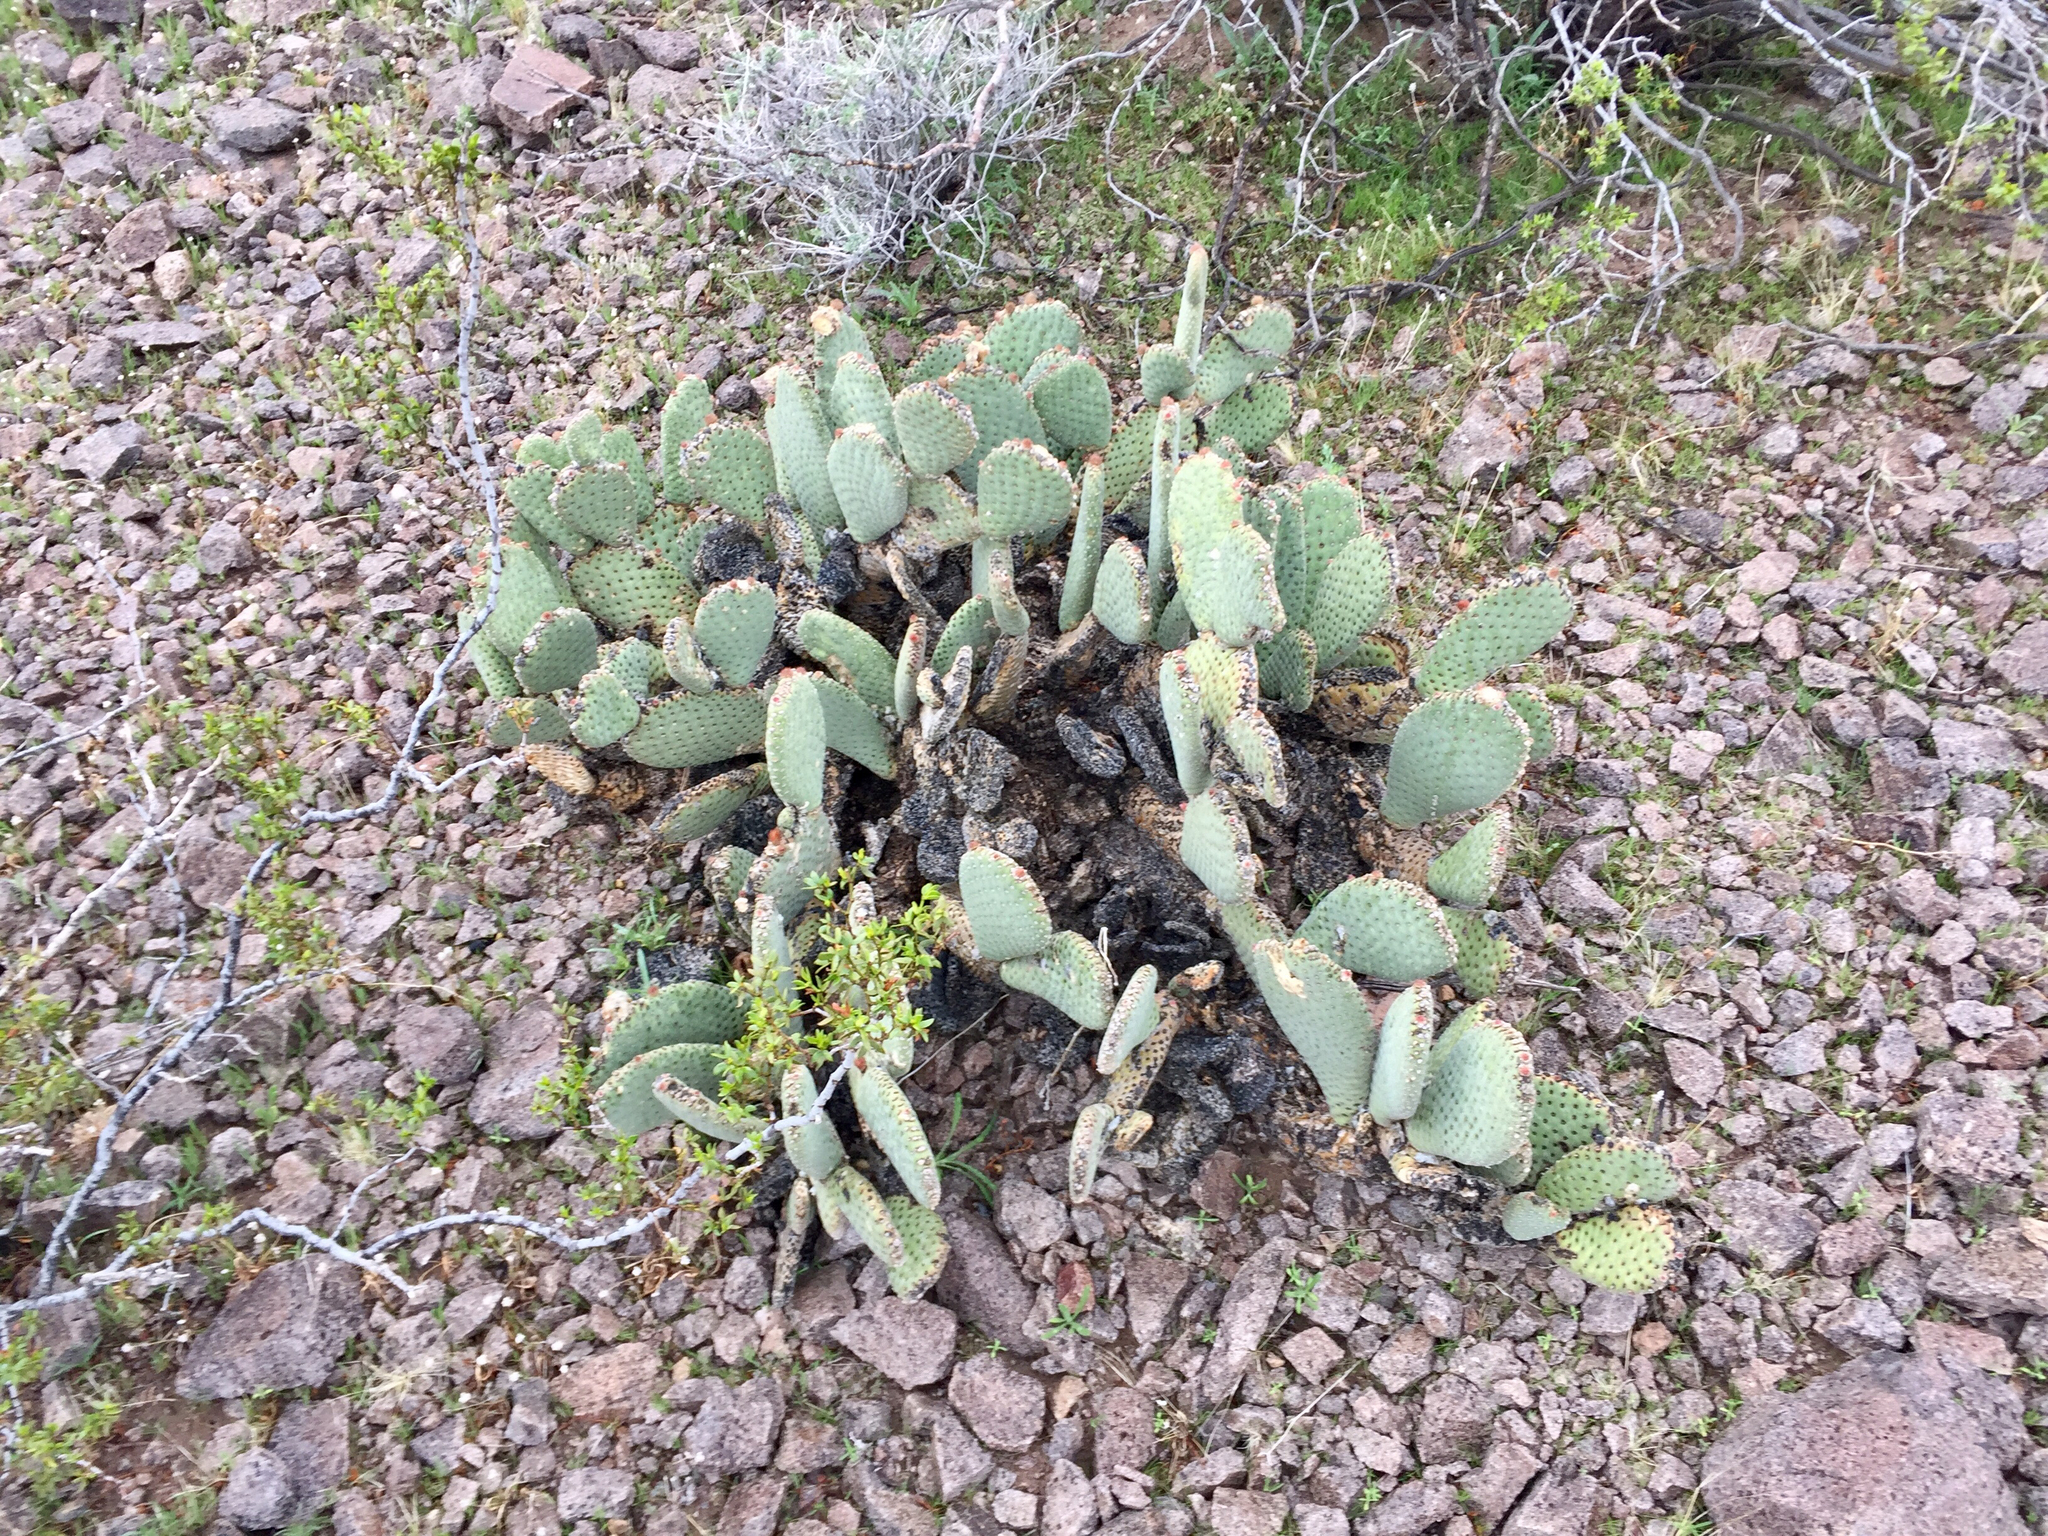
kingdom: Plantae
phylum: Tracheophyta
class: Magnoliopsida
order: Caryophyllales
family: Cactaceae
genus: Opuntia
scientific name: Opuntia basilaris
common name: Beavertail prickly-pear
